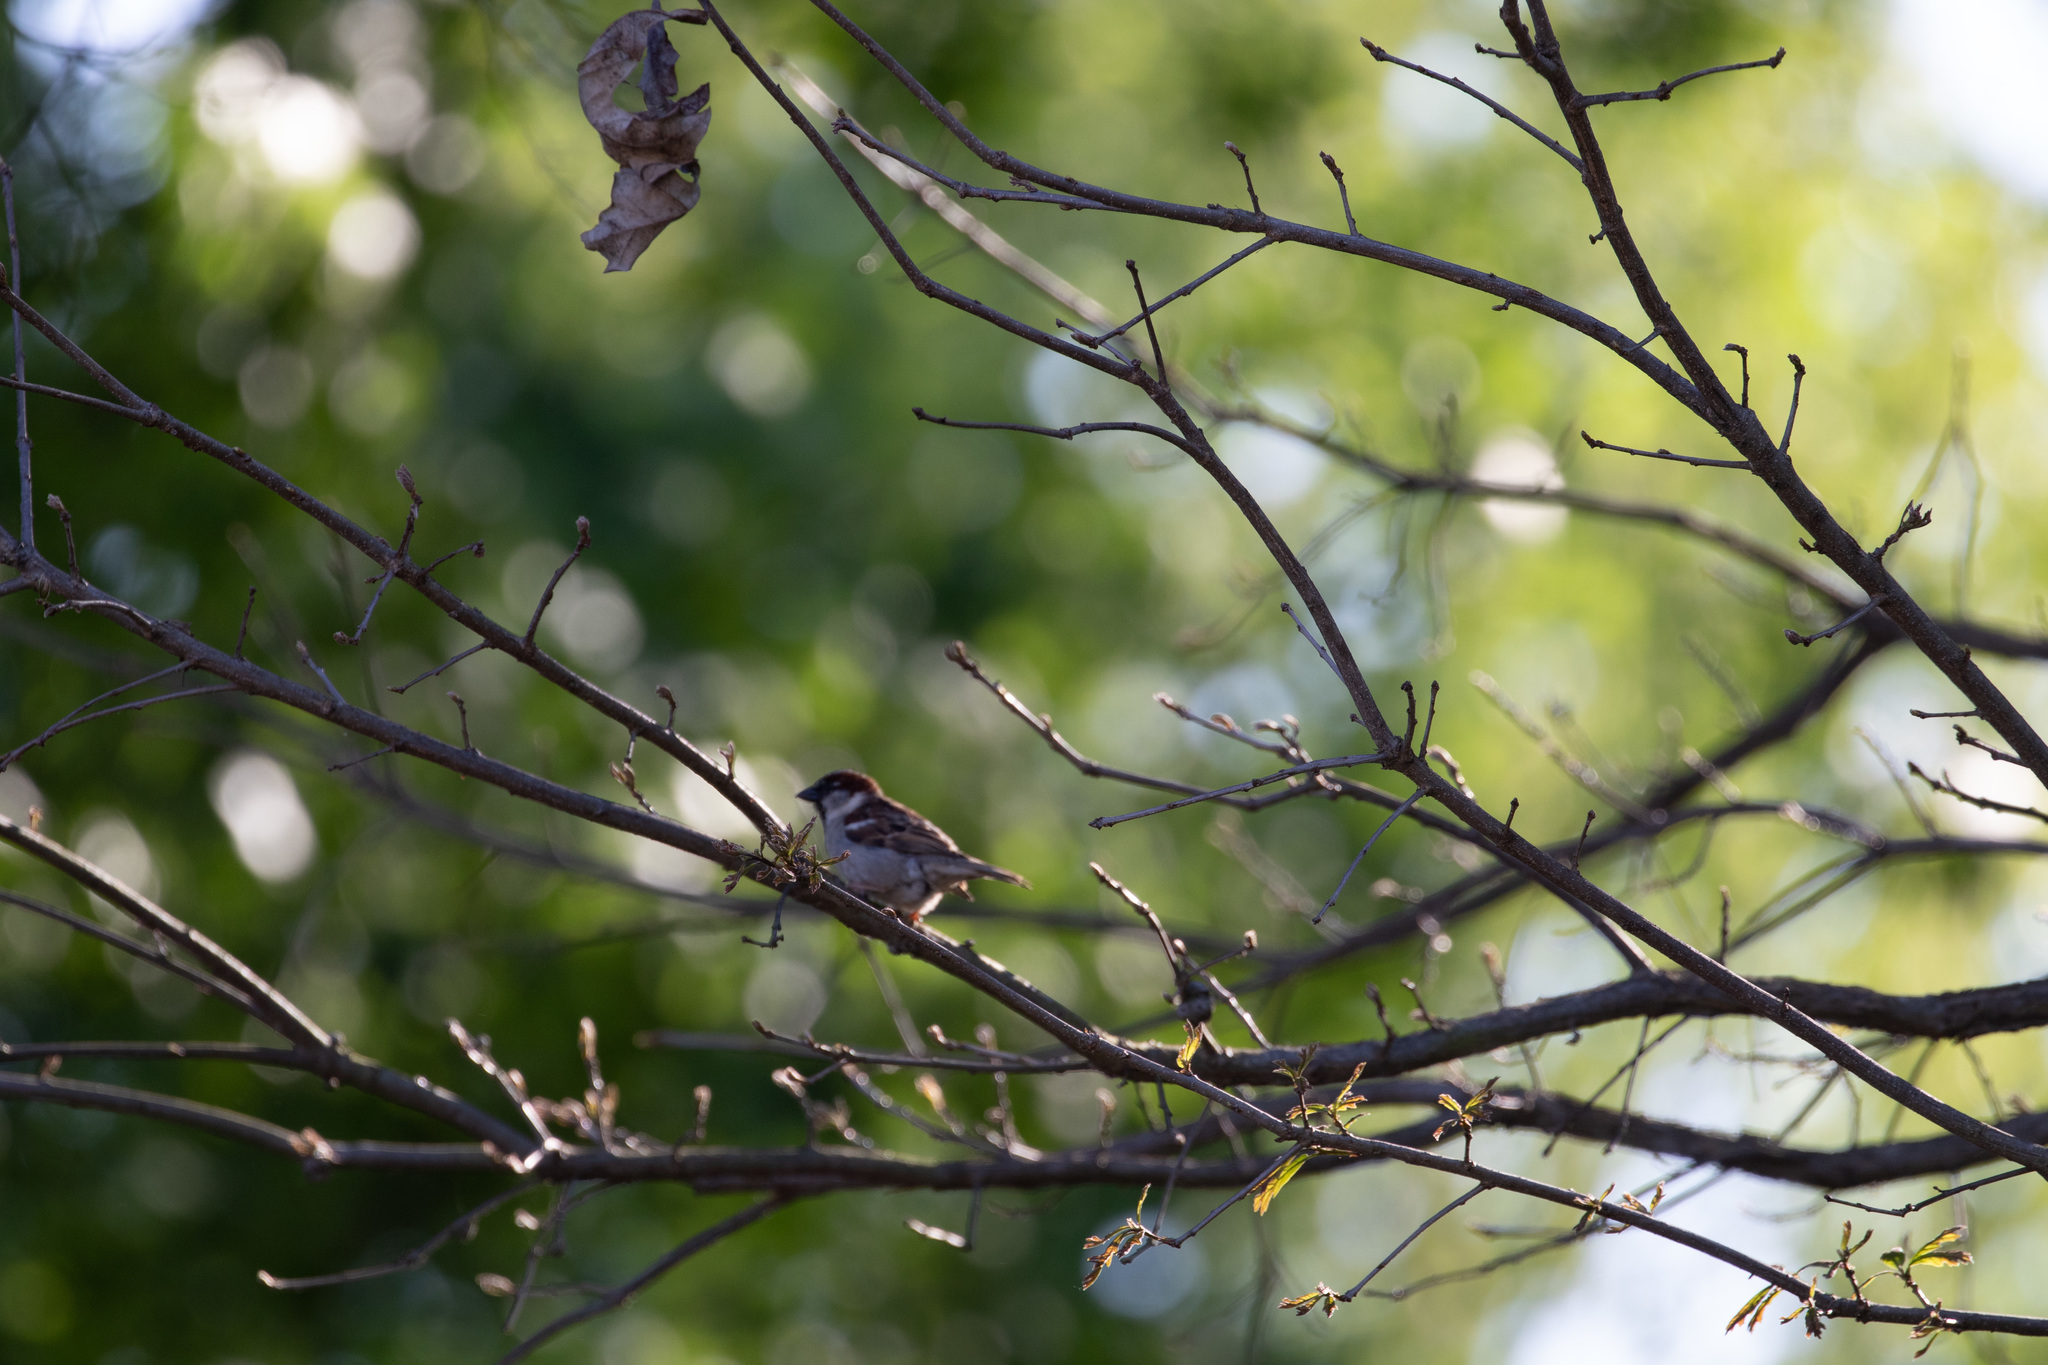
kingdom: Animalia
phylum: Chordata
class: Aves
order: Passeriformes
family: Passeridae
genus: Passer
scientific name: Passer domesticus
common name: House sparrow
